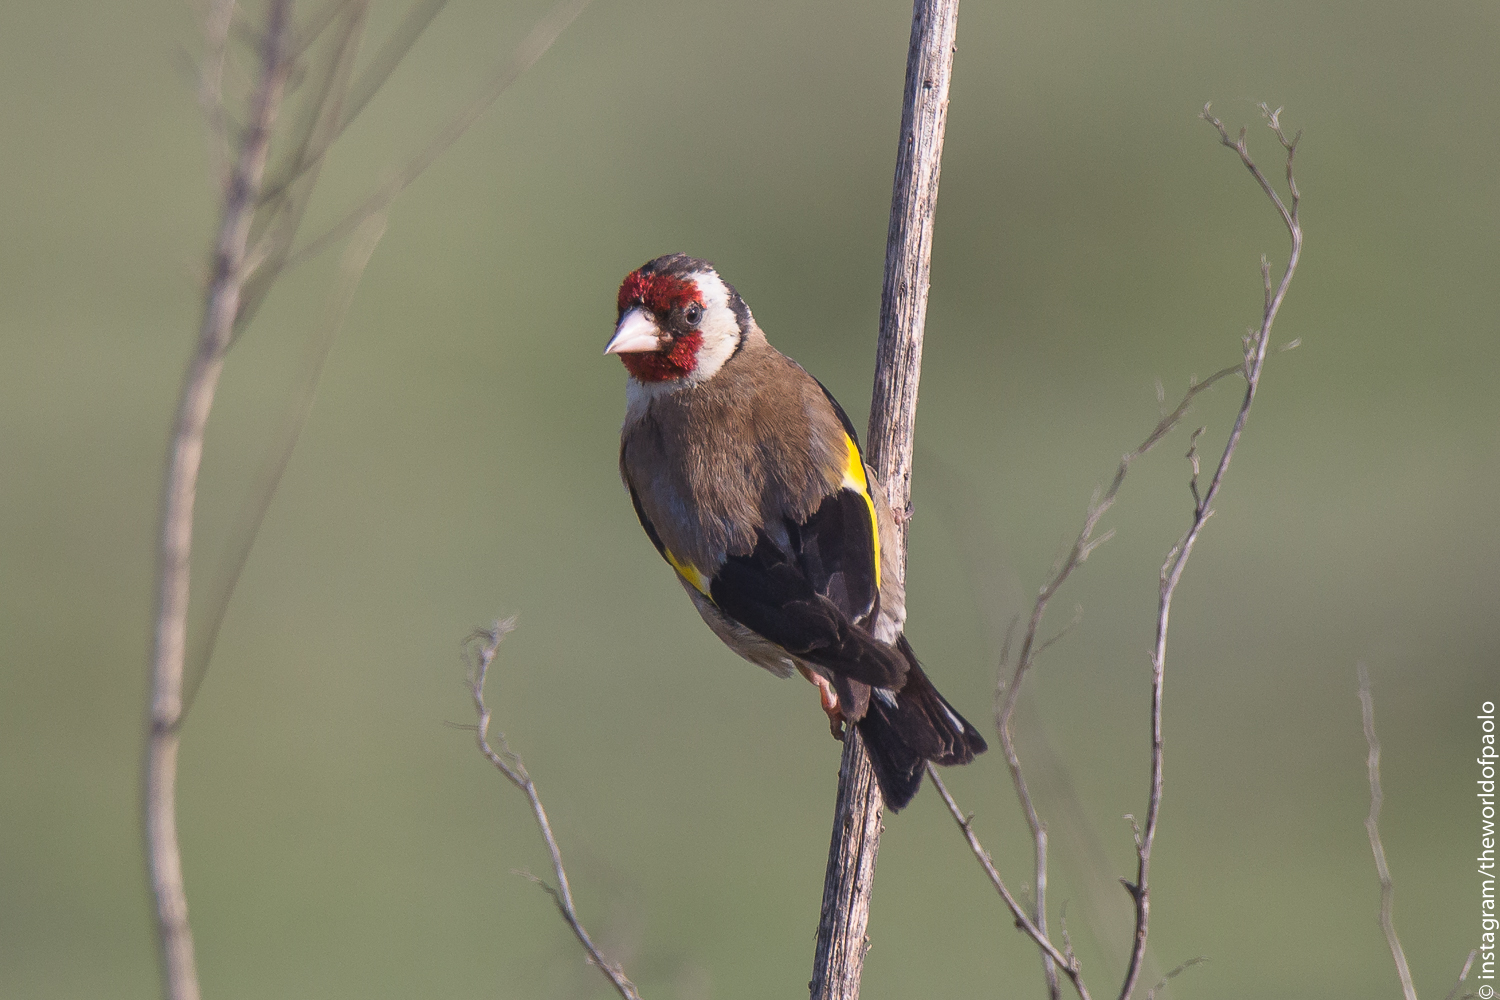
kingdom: Animalia
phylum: Chordata
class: Aves
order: Passeriformes
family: Fringillidae
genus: Carduelis
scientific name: Carduelis carduelis
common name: European goldfinch
